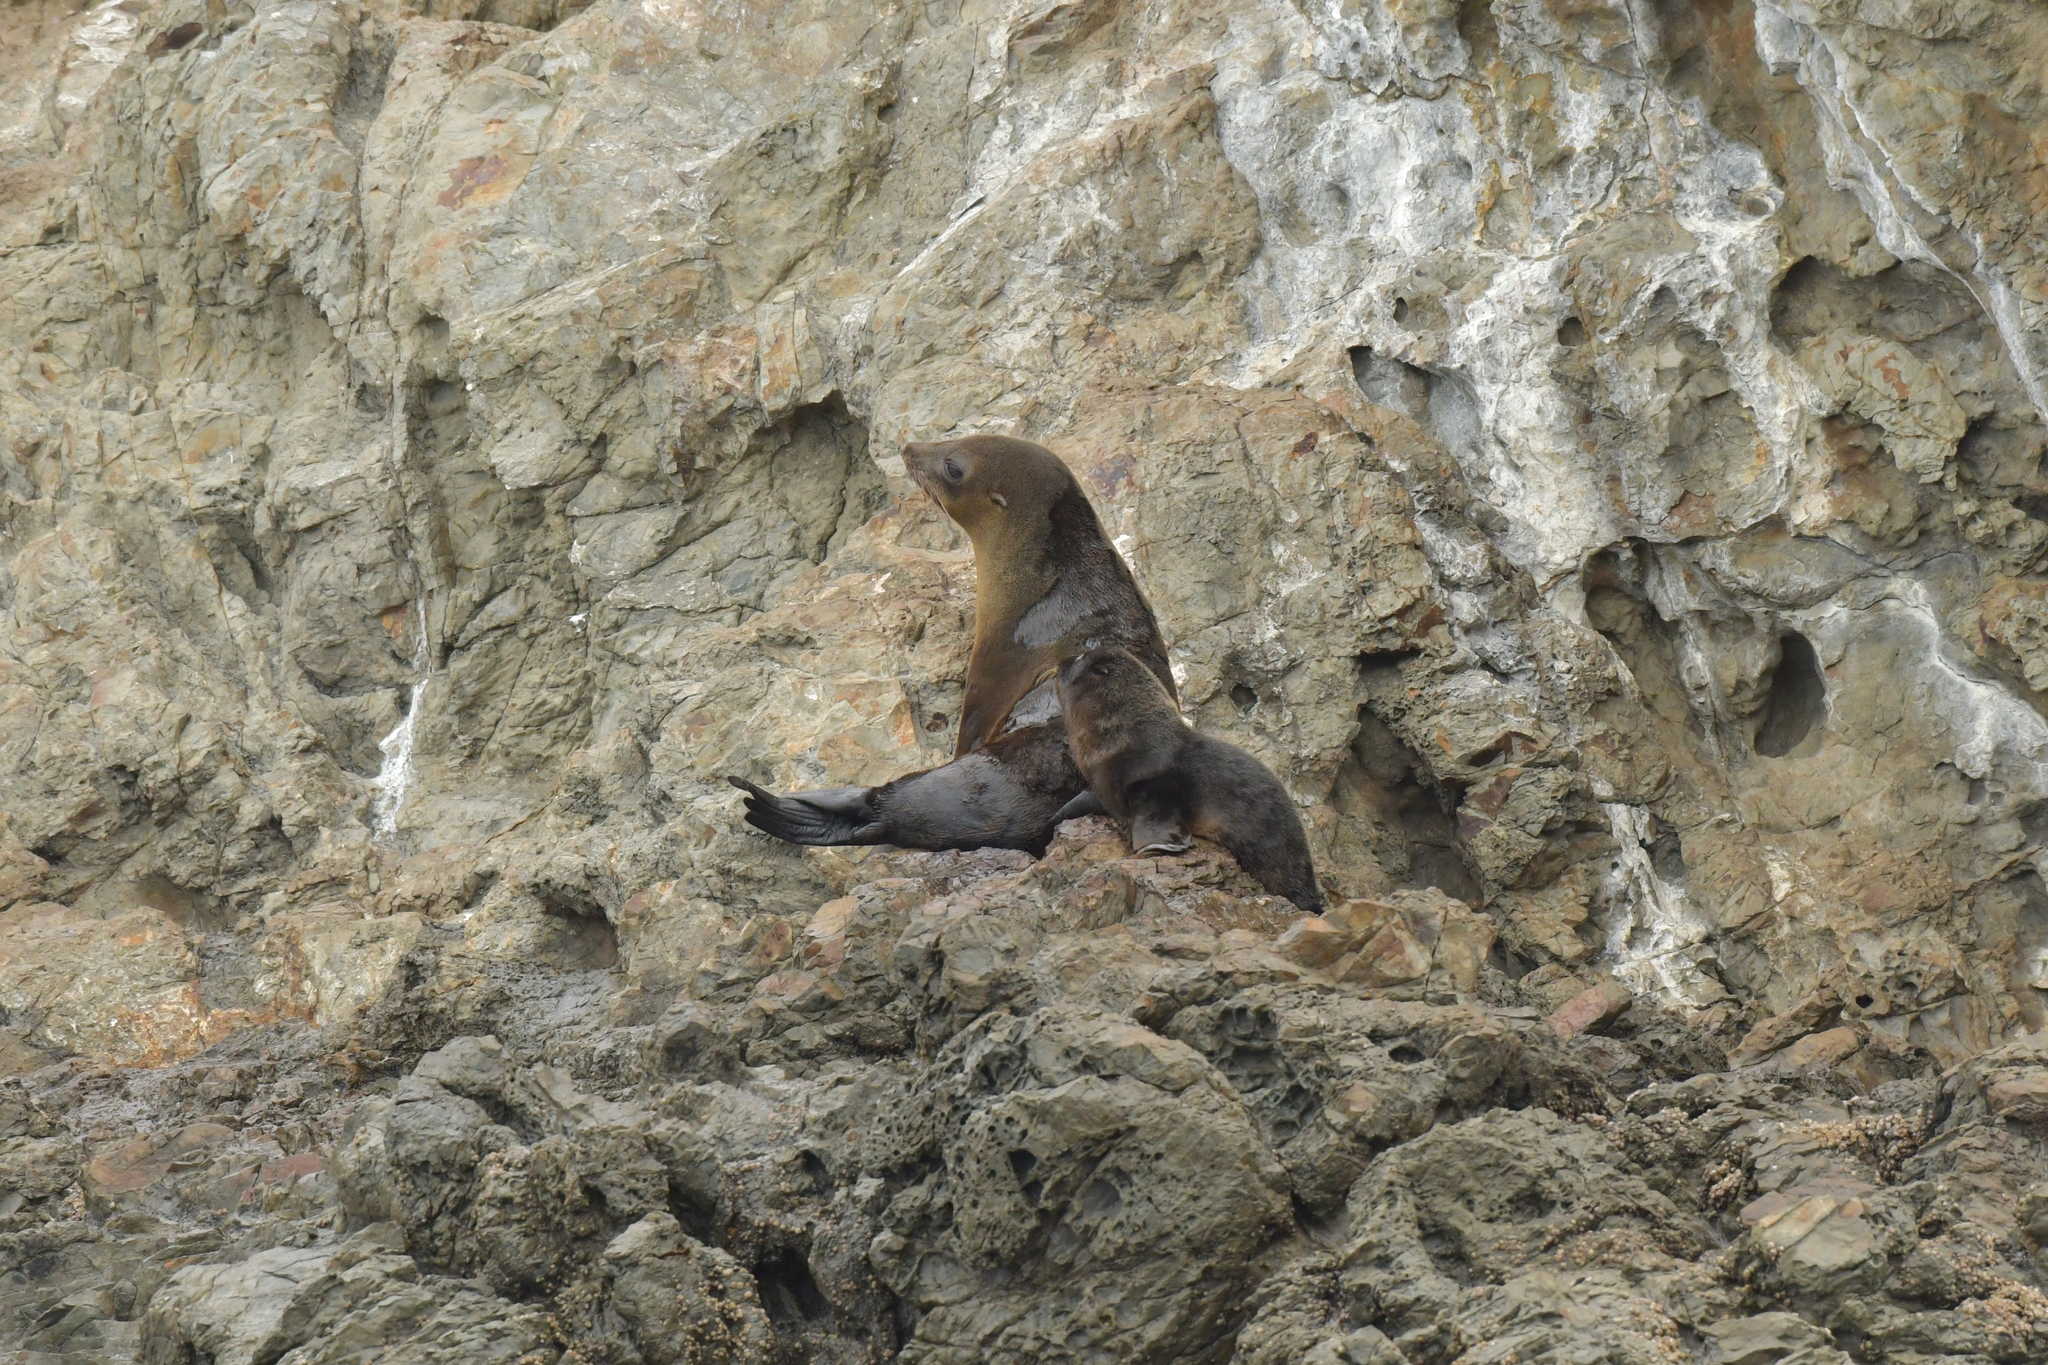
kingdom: Animalia
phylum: Chordata
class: Mammalia
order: Carnivora
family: Otariidae
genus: Arctocephalus
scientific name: Arctocephalus forsteri
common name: New zealand fur seal
